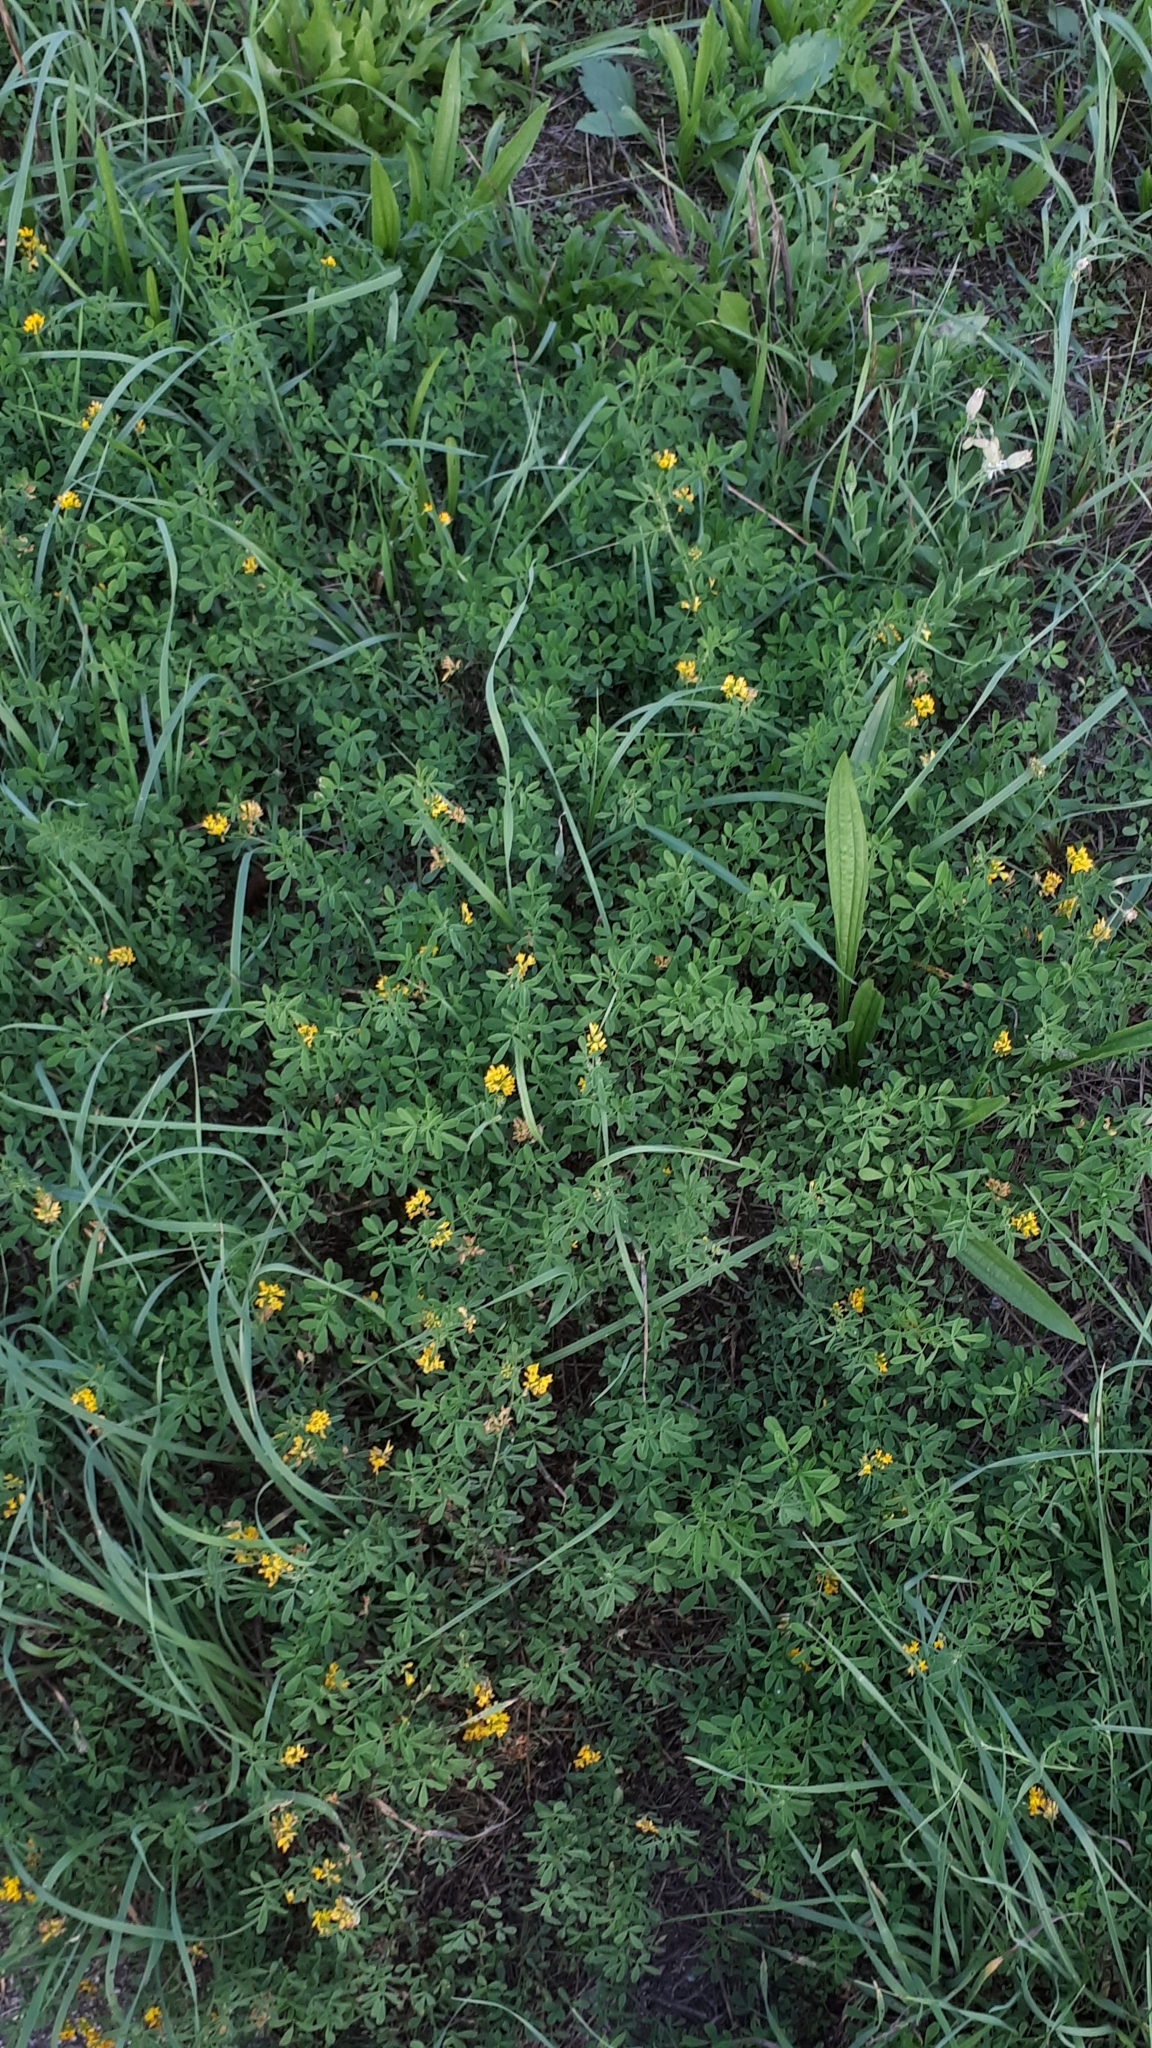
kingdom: Plantae
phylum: Tracheophyta
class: Magnoliopsida
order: Fabales
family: Fabaceae
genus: Medicago
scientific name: Medicago falcata
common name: Sickle medick
